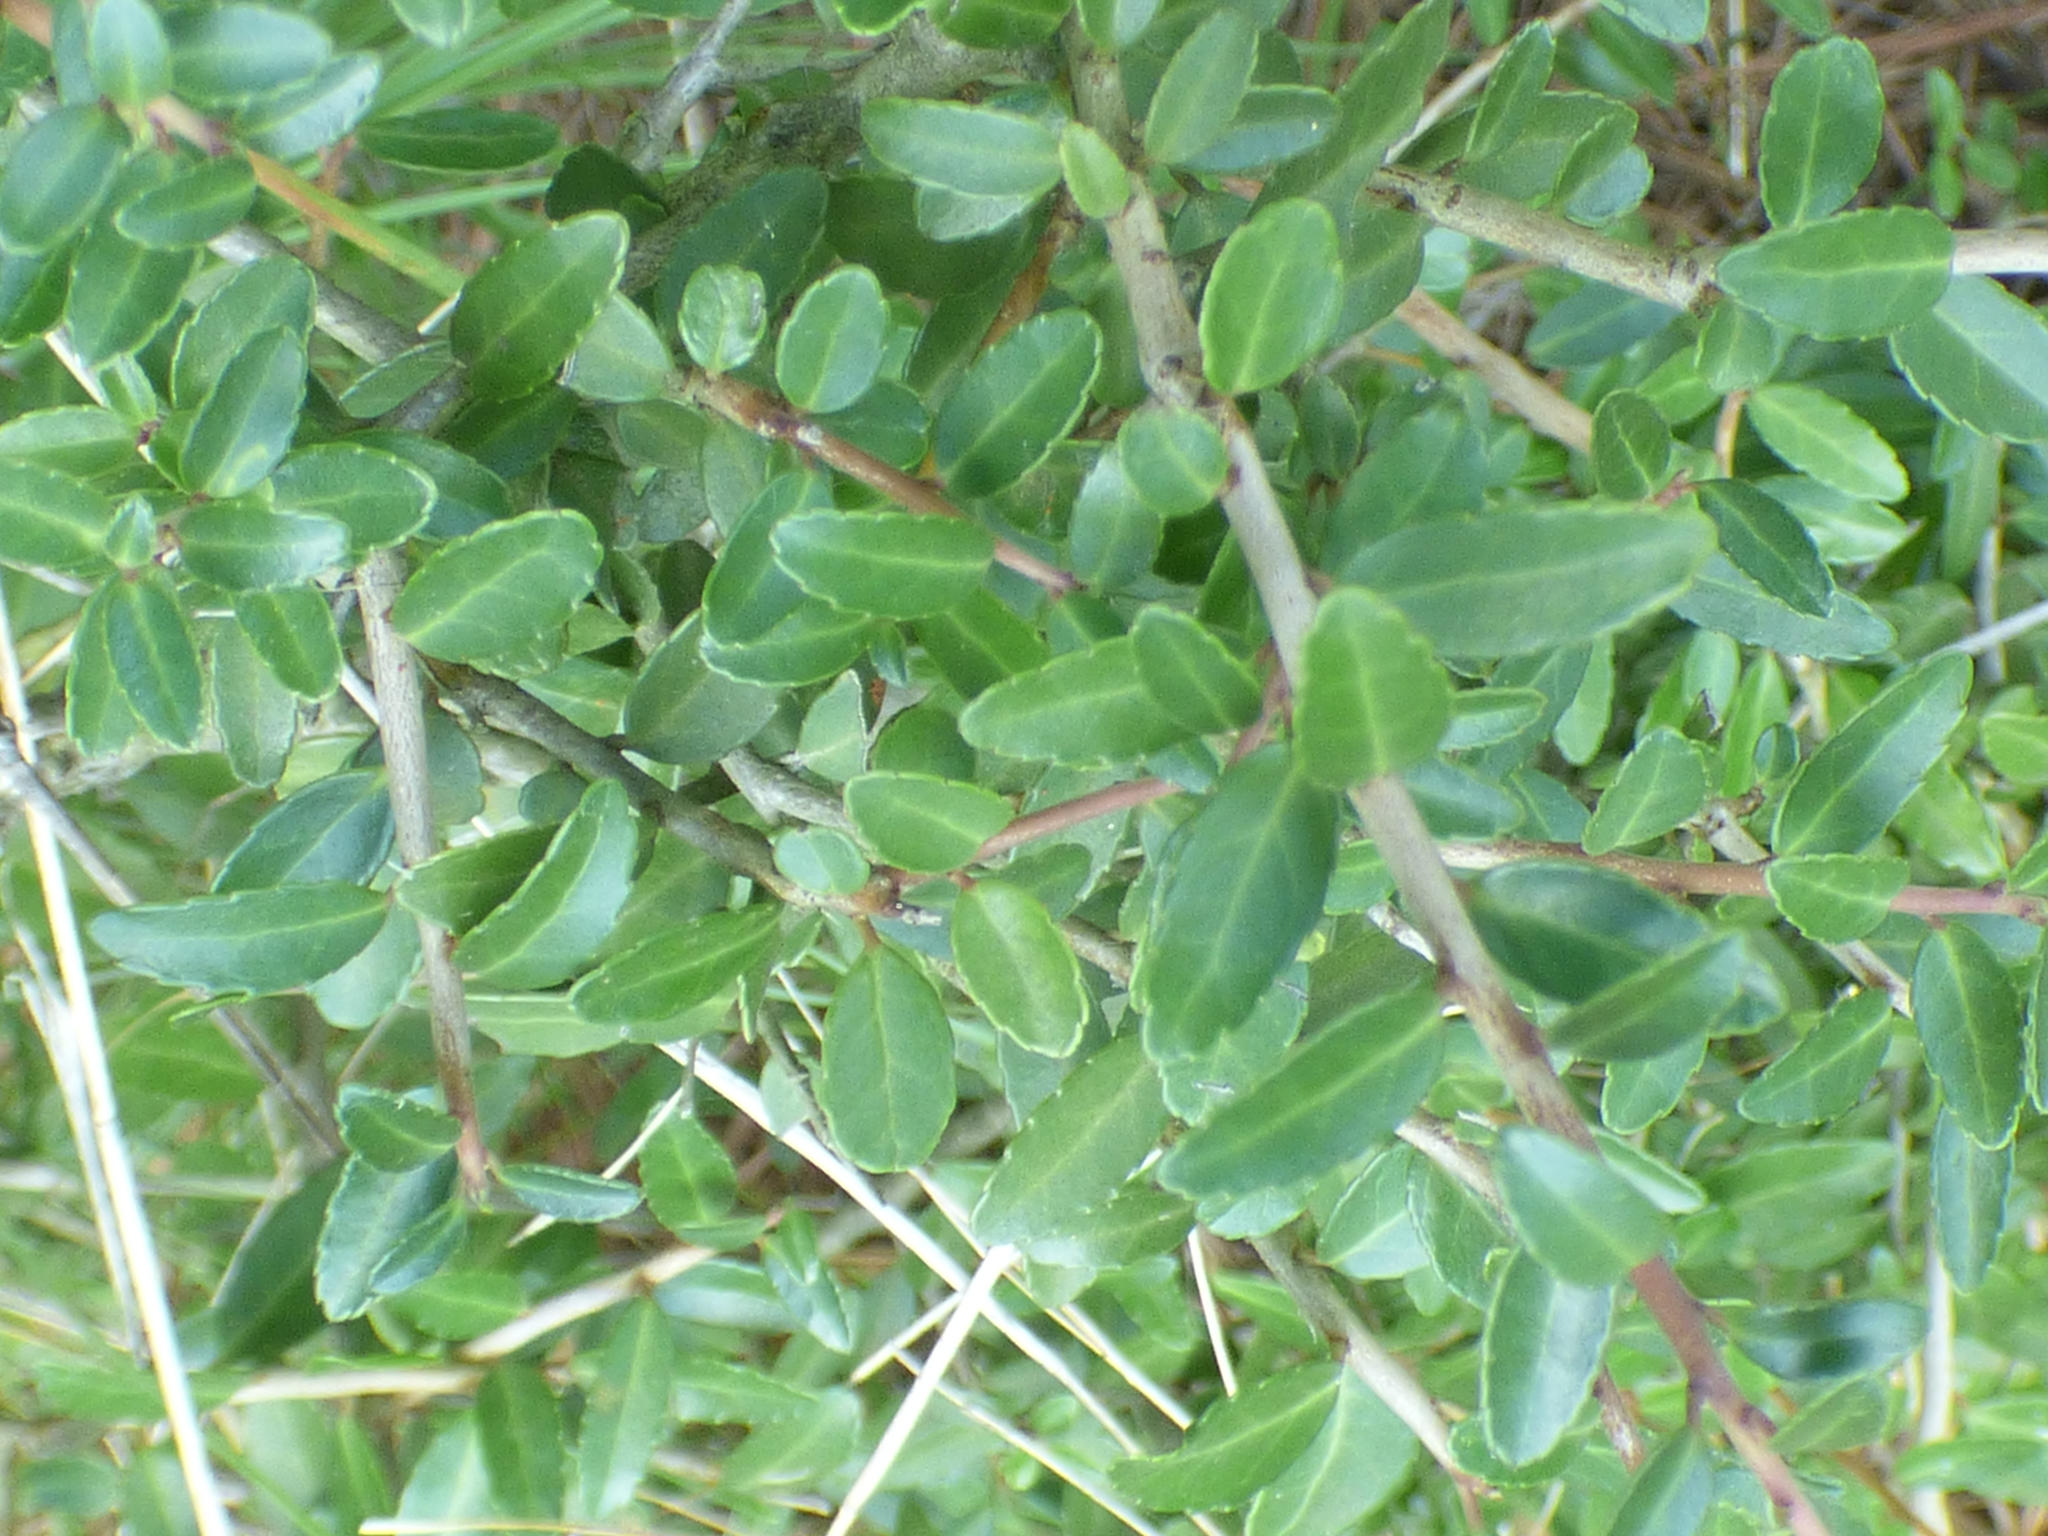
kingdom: Plantae
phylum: Tracheophyta
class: Magnoliopsida
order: Aquifoliales
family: Aquifoliaceae
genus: Ilex
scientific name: Ilex vomitoria
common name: Yaupon holly
